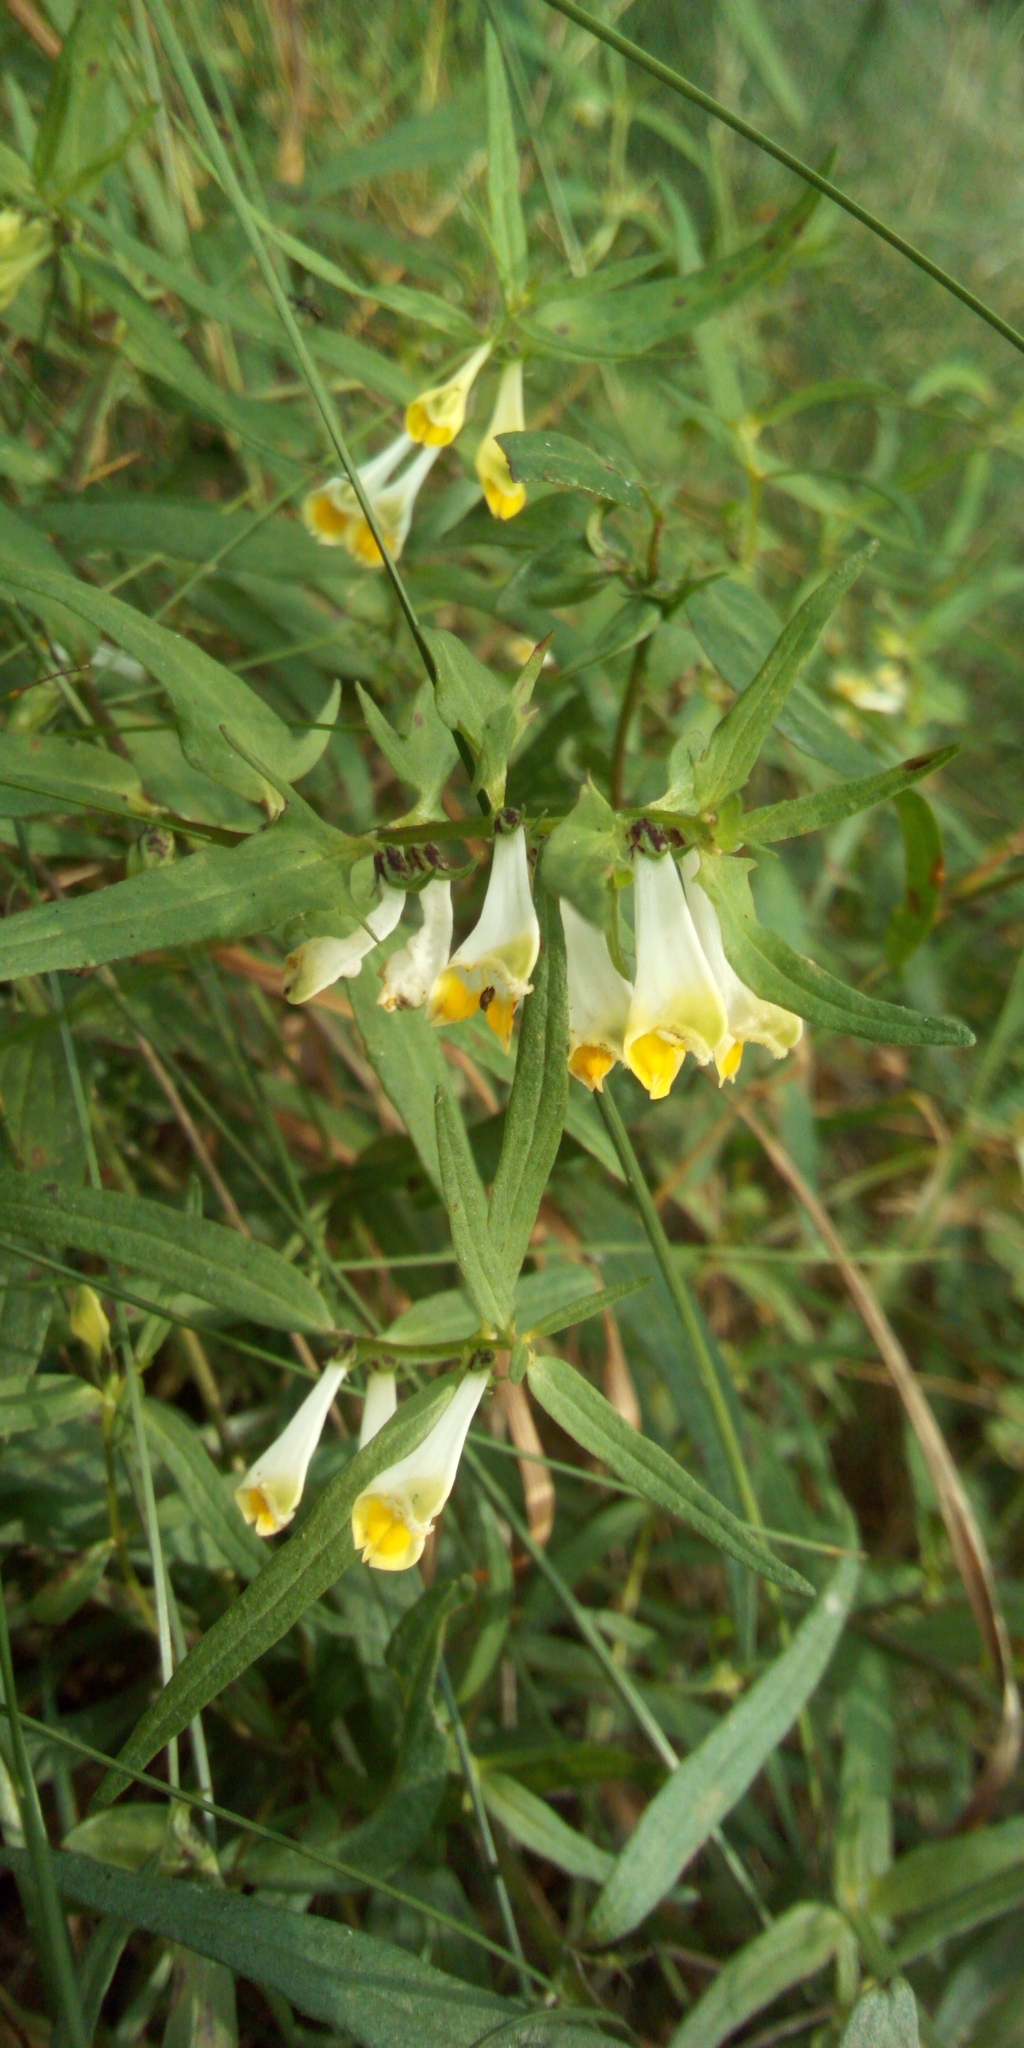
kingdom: Plantae
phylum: Tracheophyta
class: Magnoliopsida
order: Lamiales
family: Orobanchaceae
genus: Melampyrum
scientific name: Melampyrum pratense
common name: Common cow-wheat
